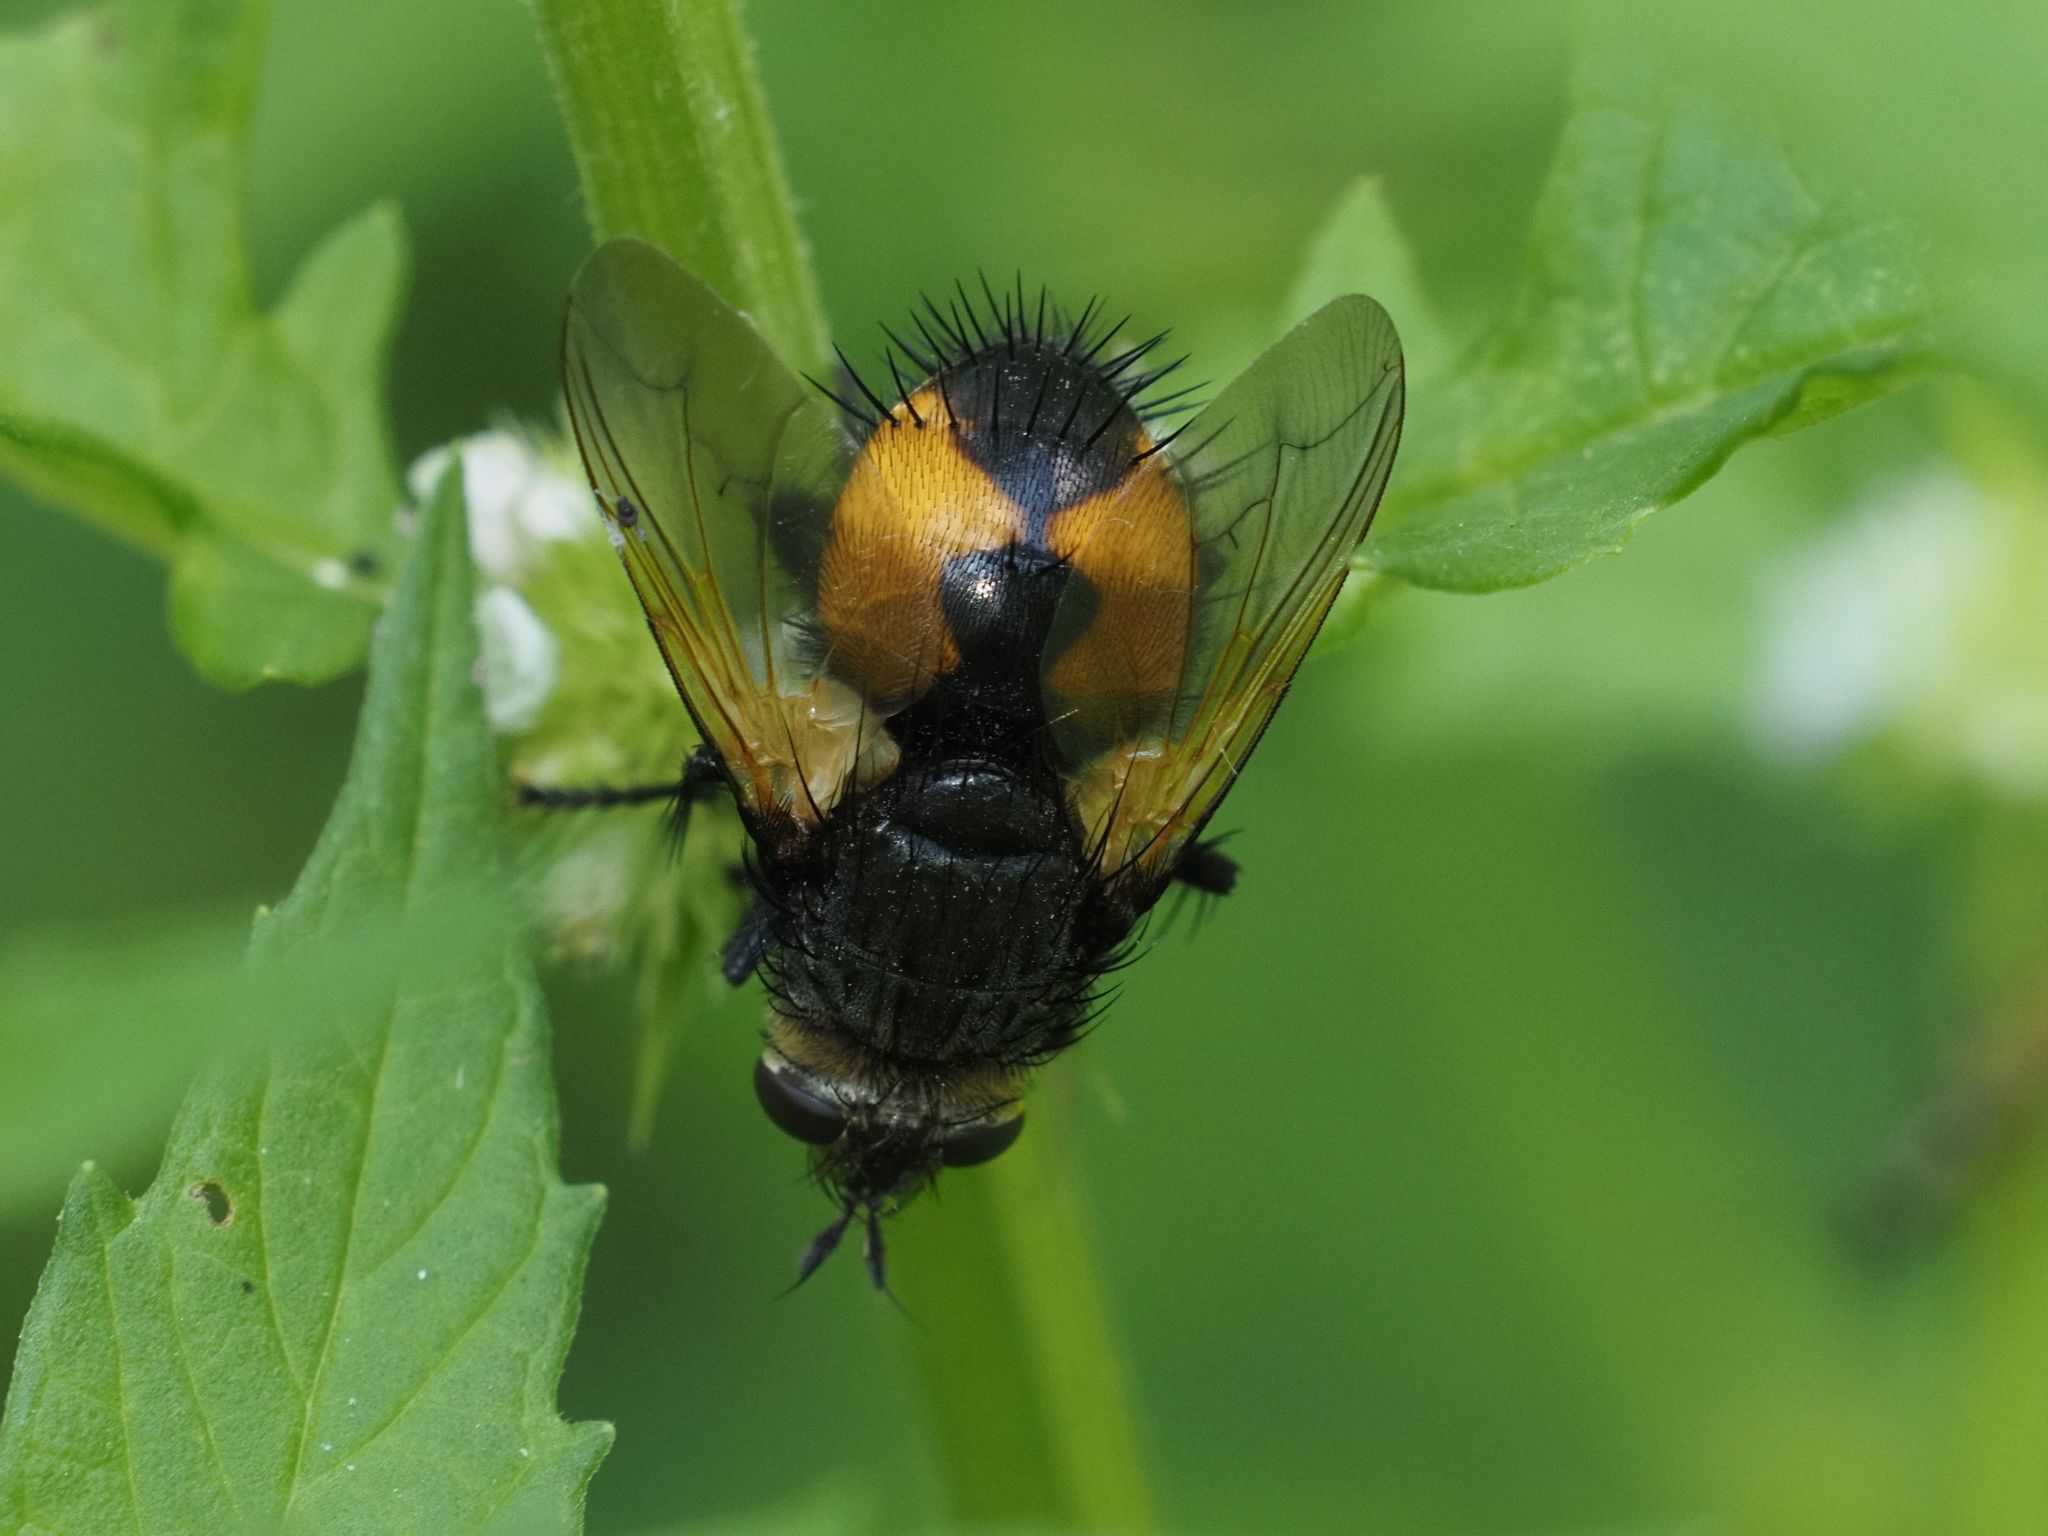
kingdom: Animalia
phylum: Arthropoda
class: Insecta
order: Diptera
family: Tachinidae
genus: Nowickia
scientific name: Nowickia ferox
